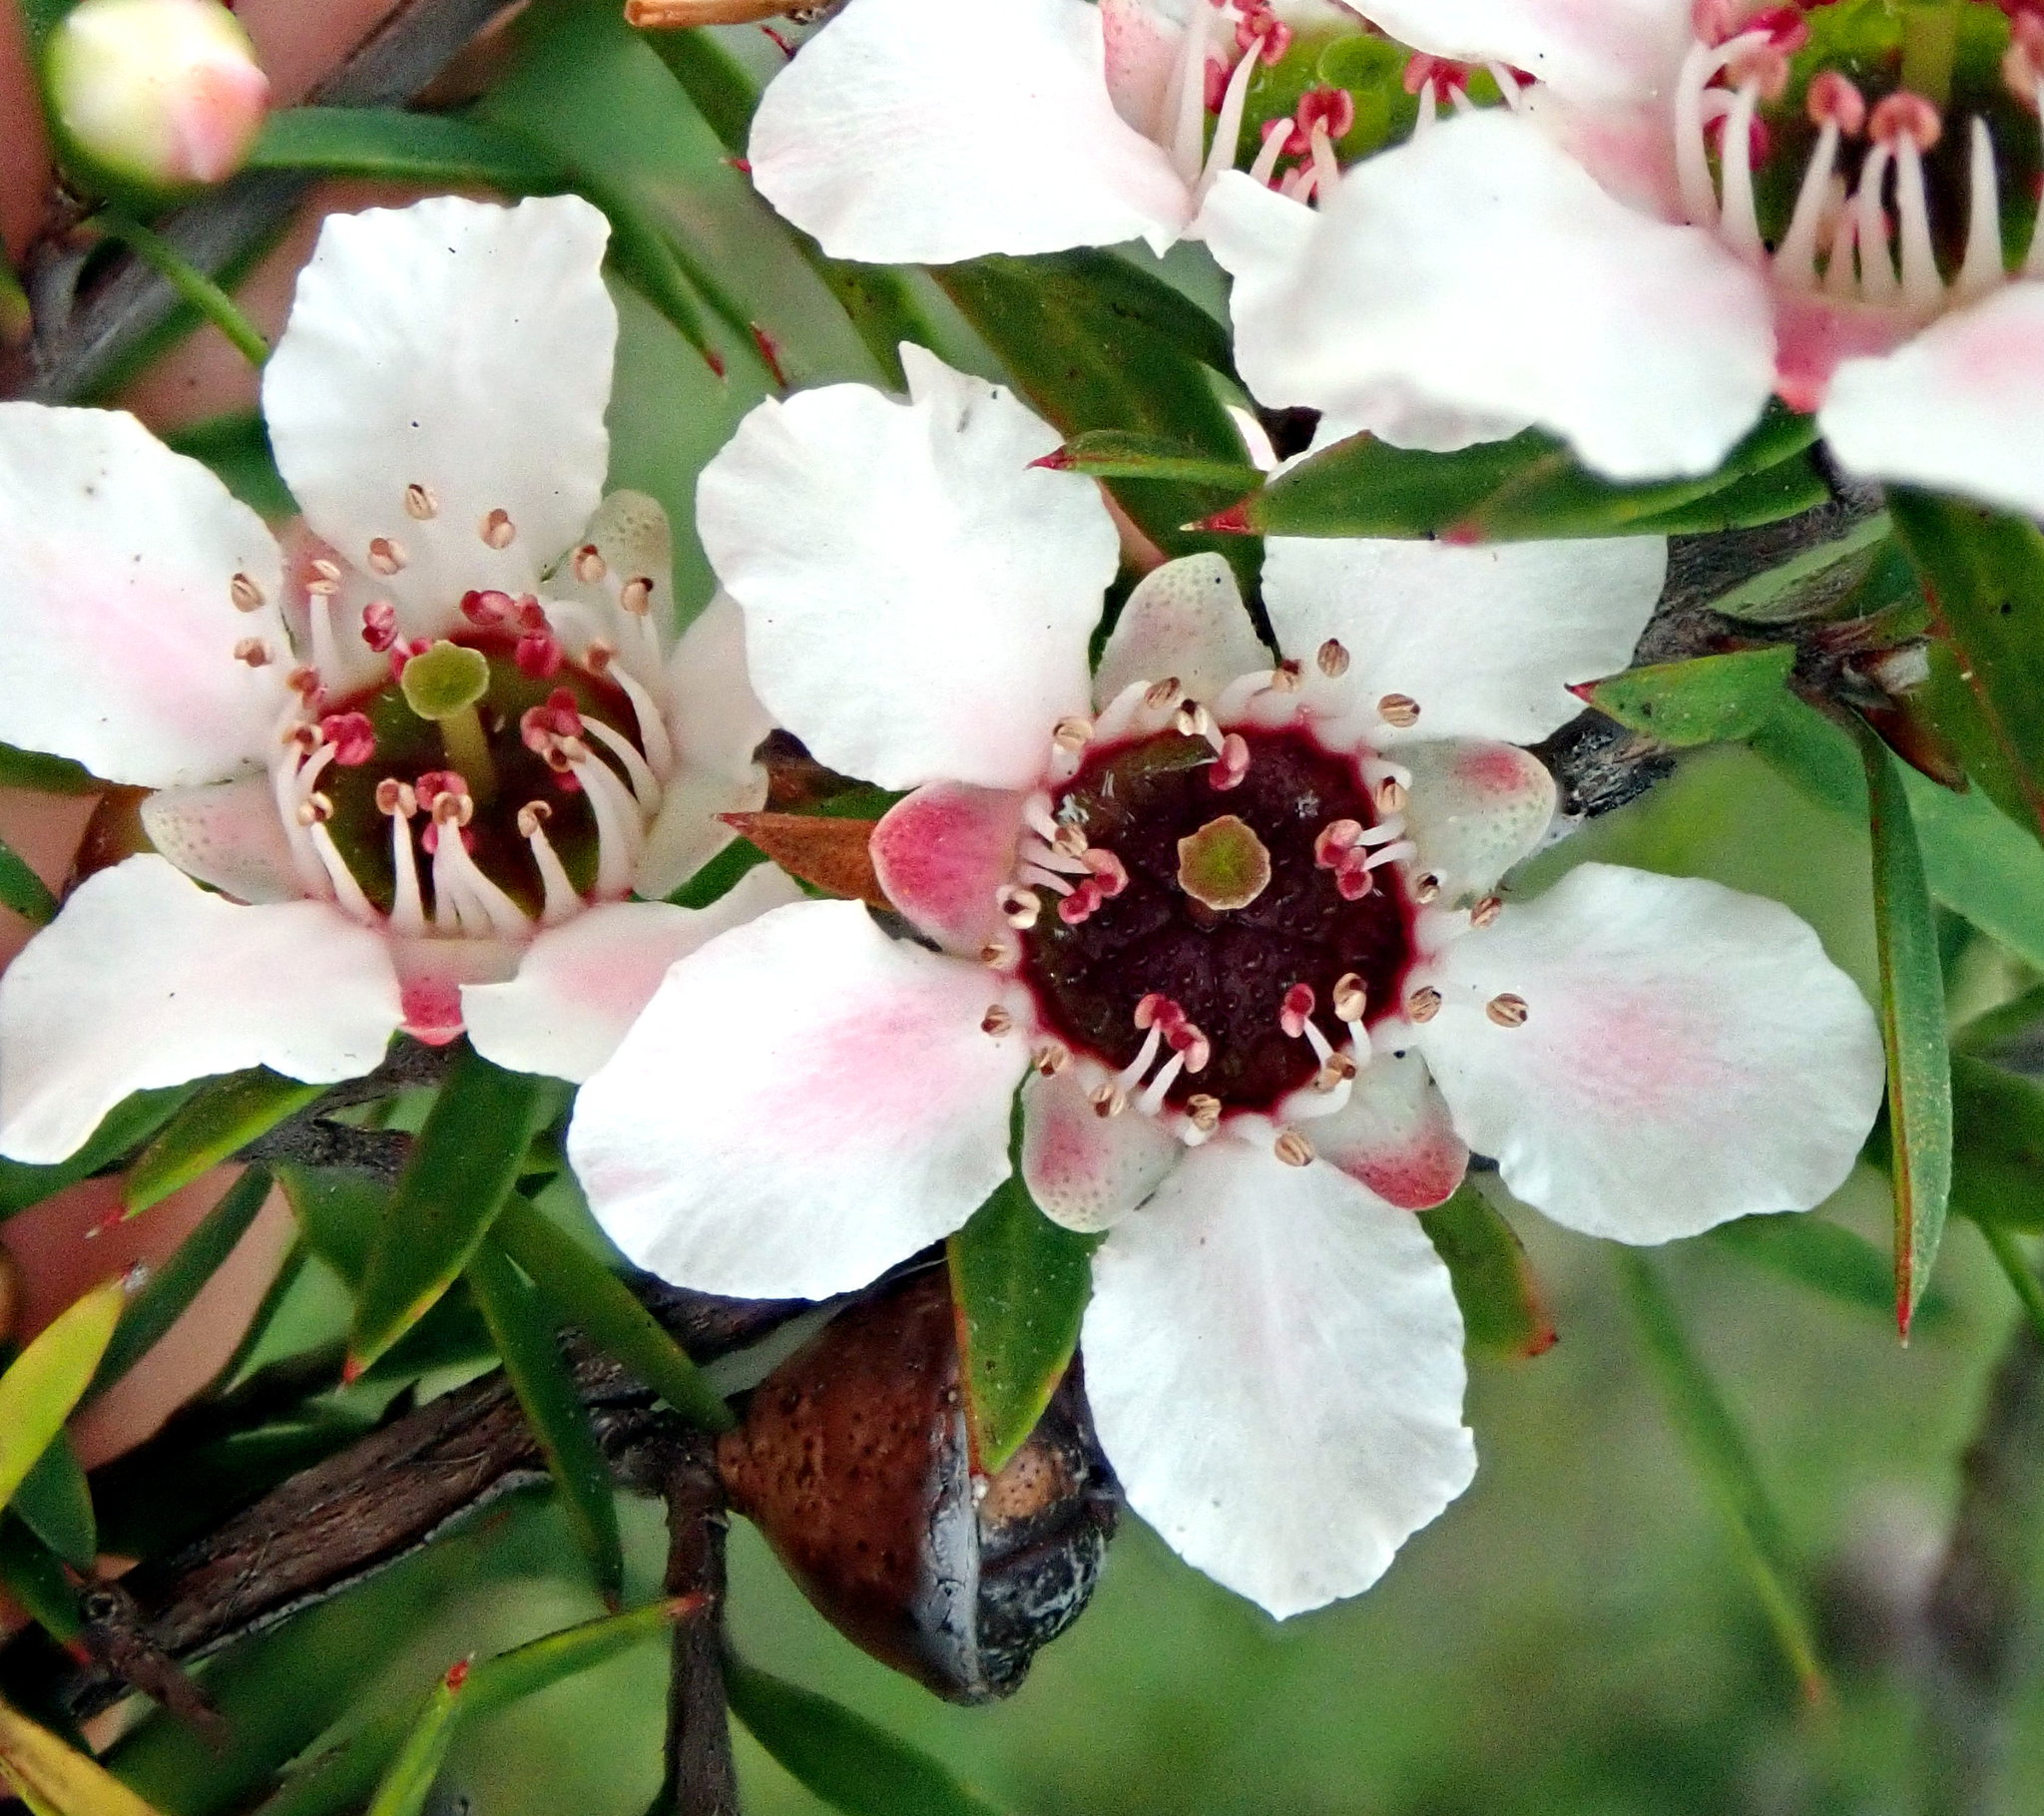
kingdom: Plantae
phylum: Tracheophyta
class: Magnoliopsida
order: Myrtales
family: Myrtaceae
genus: Leptospermum
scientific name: Leptospermum scoparium
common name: Broom tea-tree
